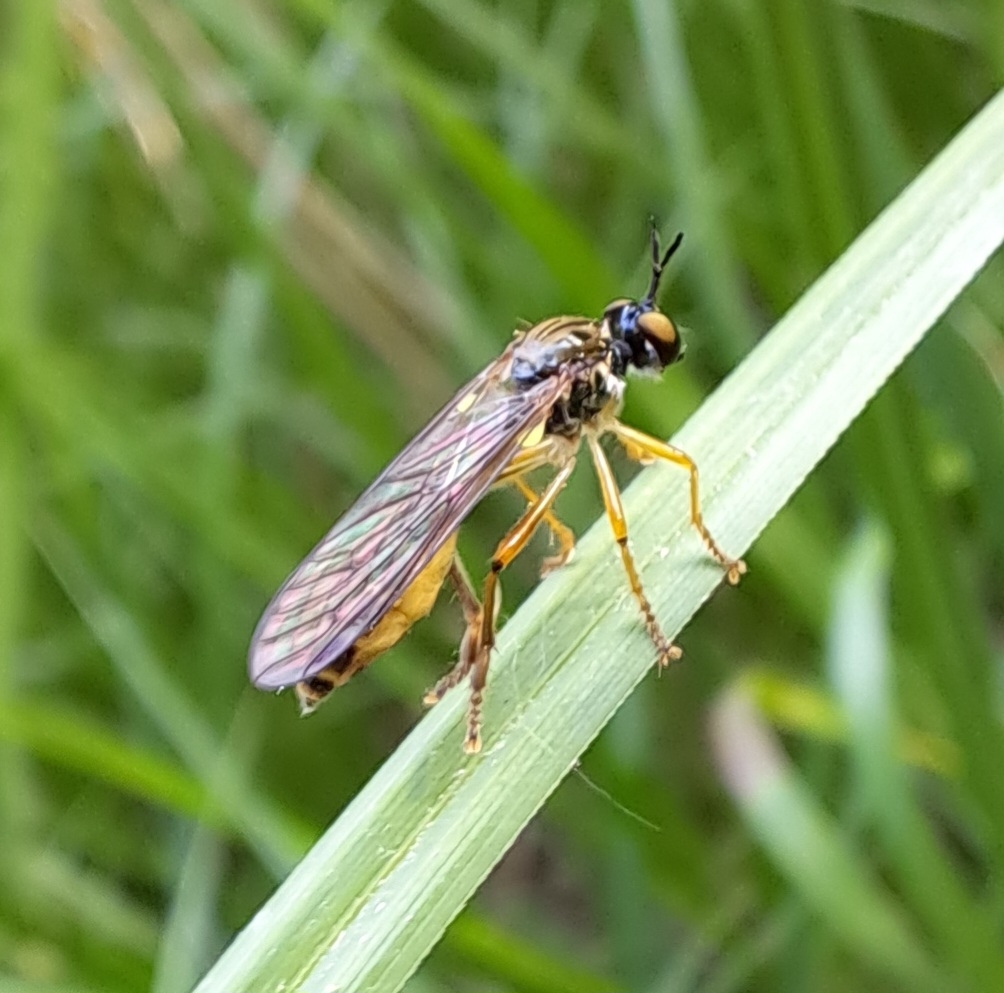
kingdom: Animalia
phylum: Arthropoda
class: Insecta
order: Diptera
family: Asilidae
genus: Dioctria
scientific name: Dioctria linearis
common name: Small yellow-legged robberfly
